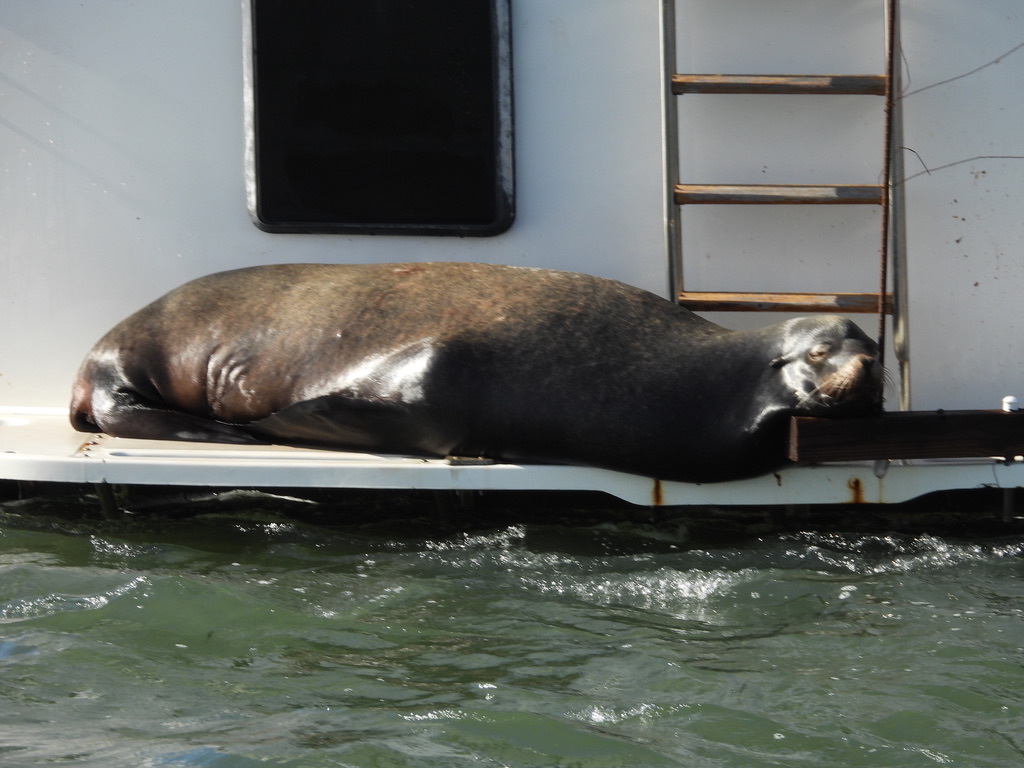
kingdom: Animalia
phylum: Chordata
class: Mammalia
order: Carnivora
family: Otariidae
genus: Zalophus
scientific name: Zalophus californianus
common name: California sea lion
